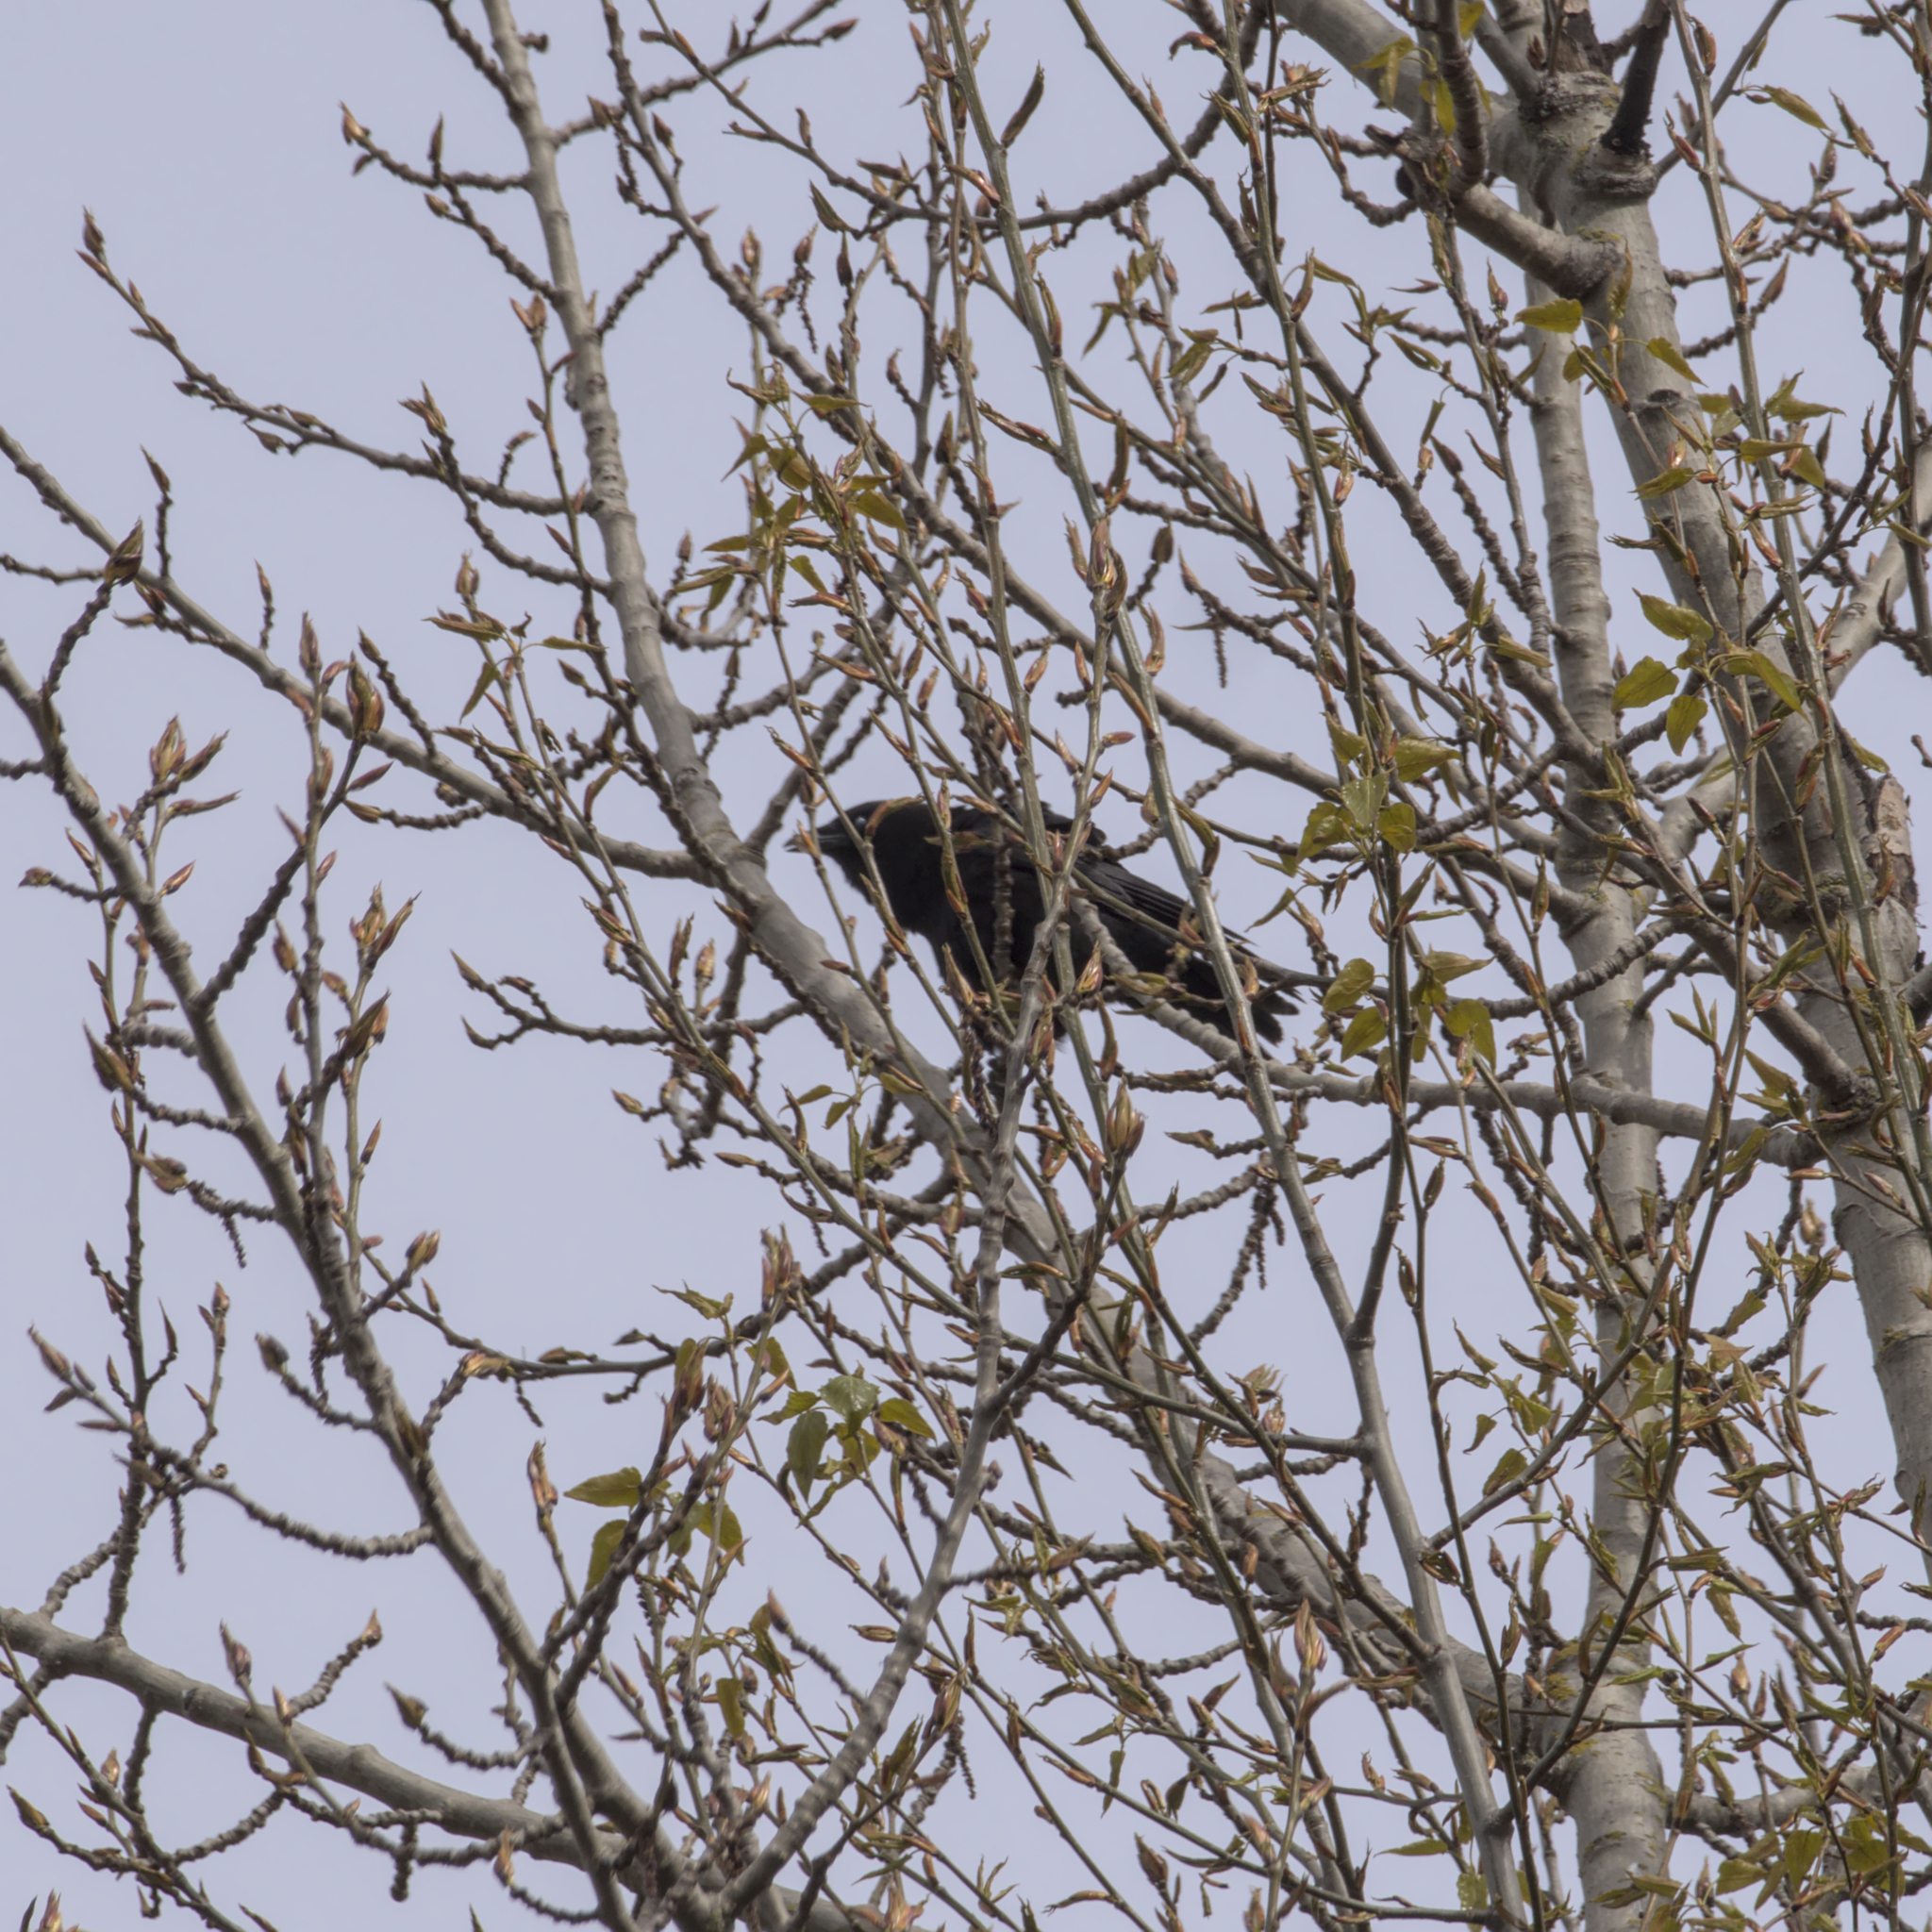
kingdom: Animalia
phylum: Chordata
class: Aves
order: Passeriformes
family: Corvidae
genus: Corvus
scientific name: Corvus brachyrhynchos
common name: American crow
